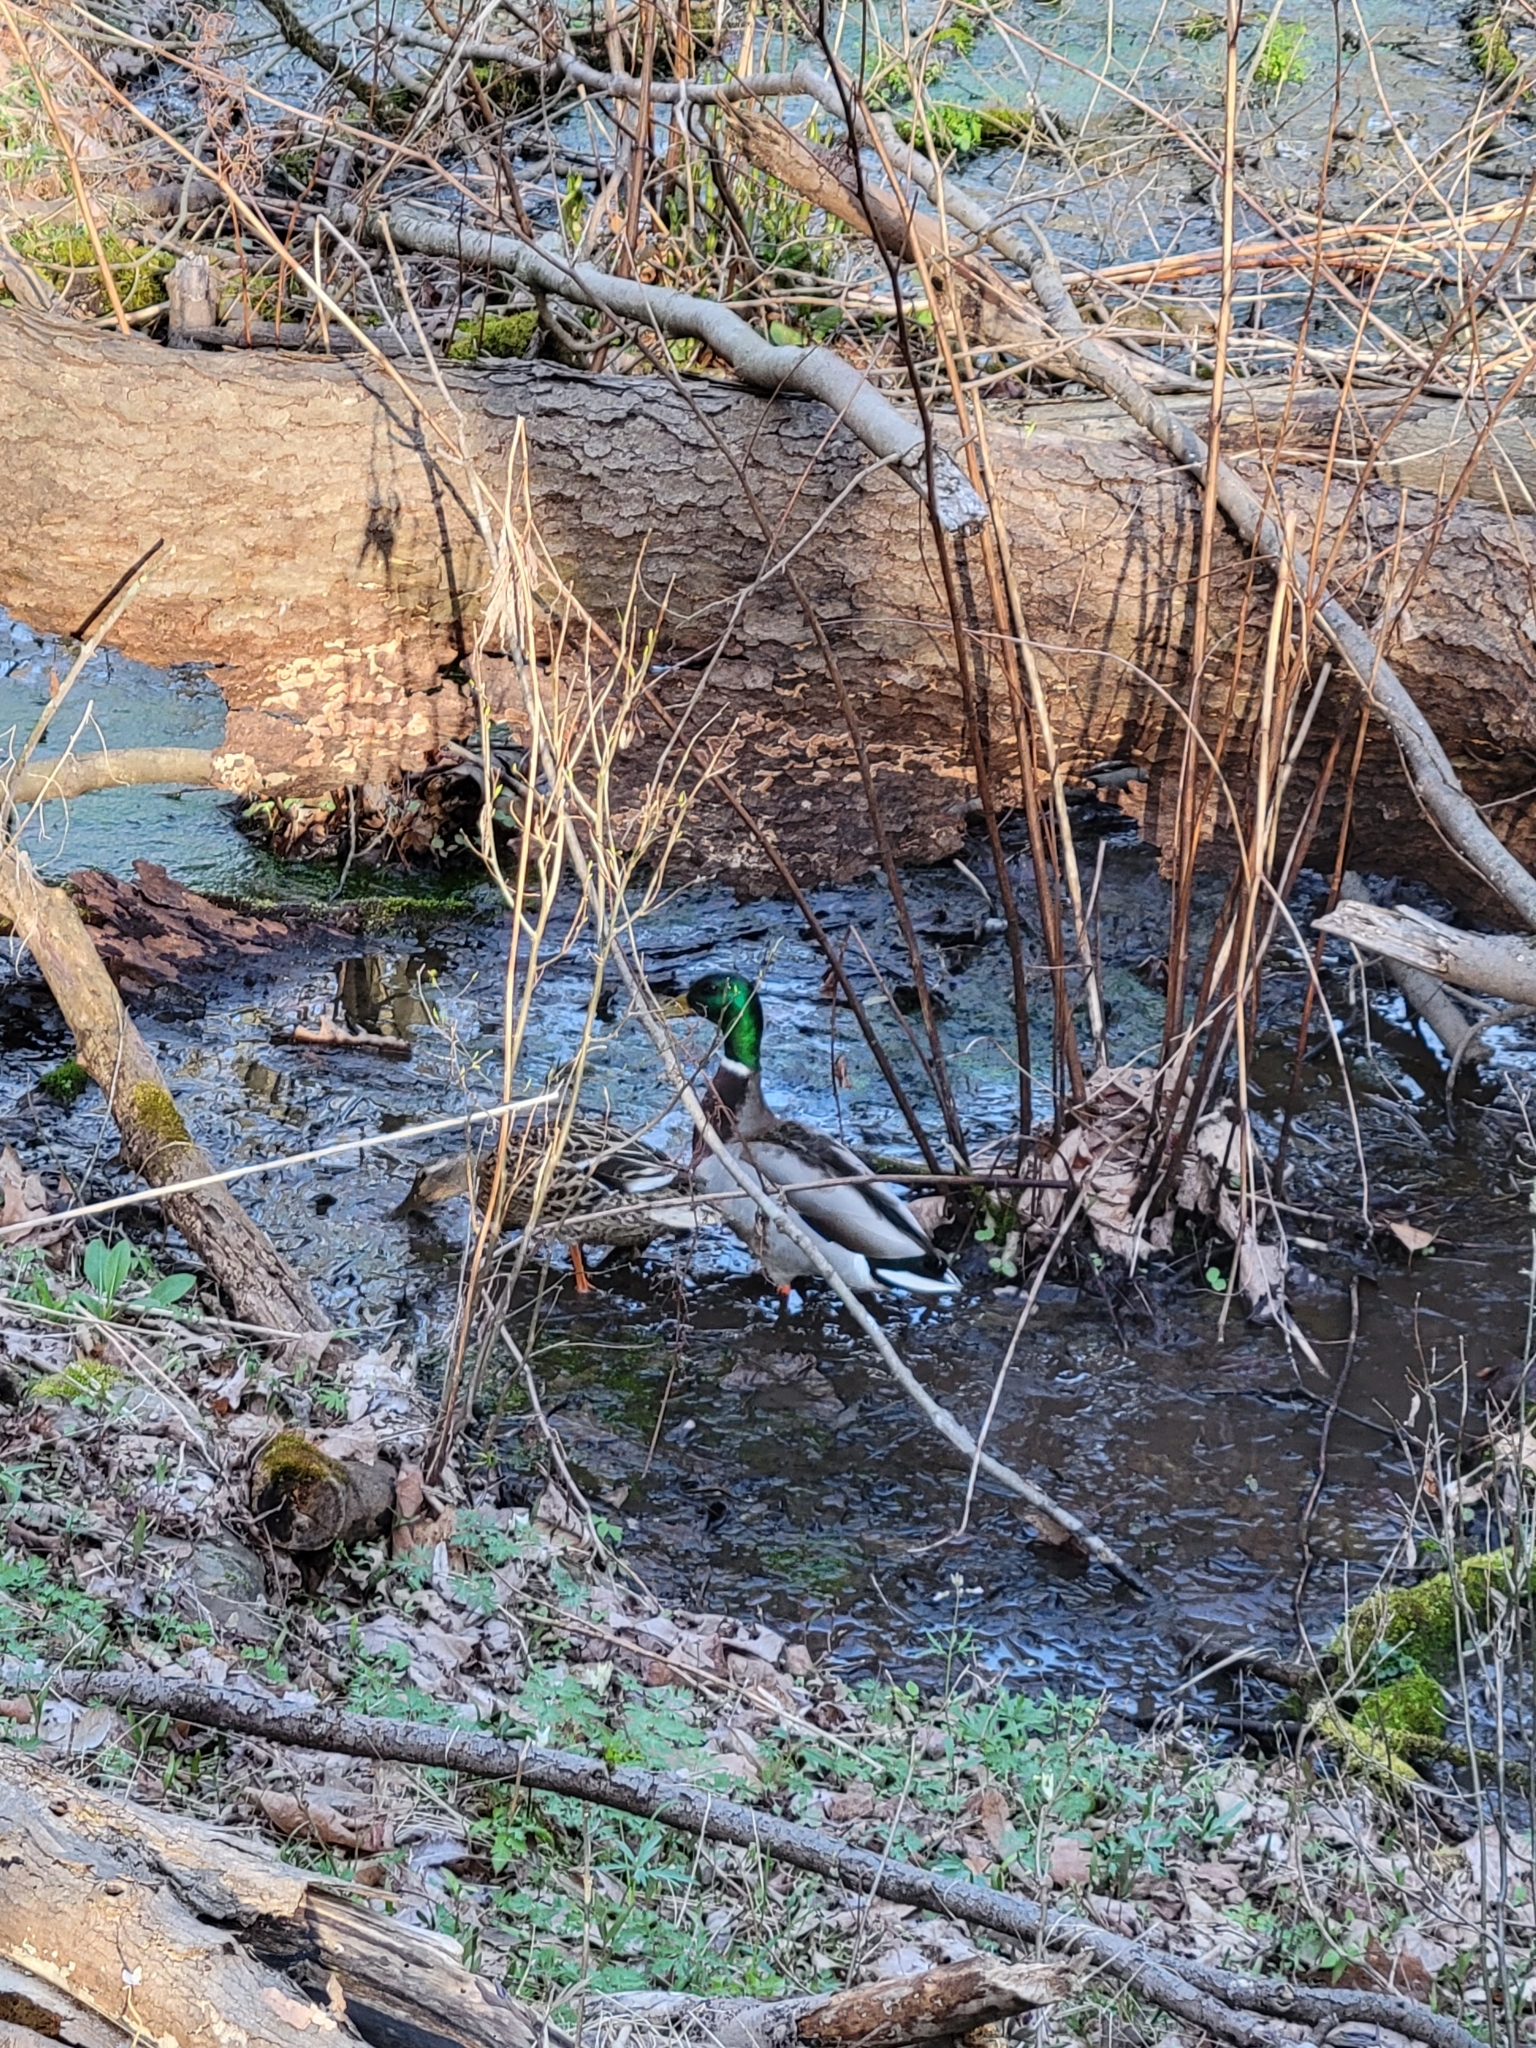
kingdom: Animalia
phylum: Chordata
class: Aves
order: Anseriformes
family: Anatidae
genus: Anas
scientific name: Anas platyrhynchos
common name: Mallard
